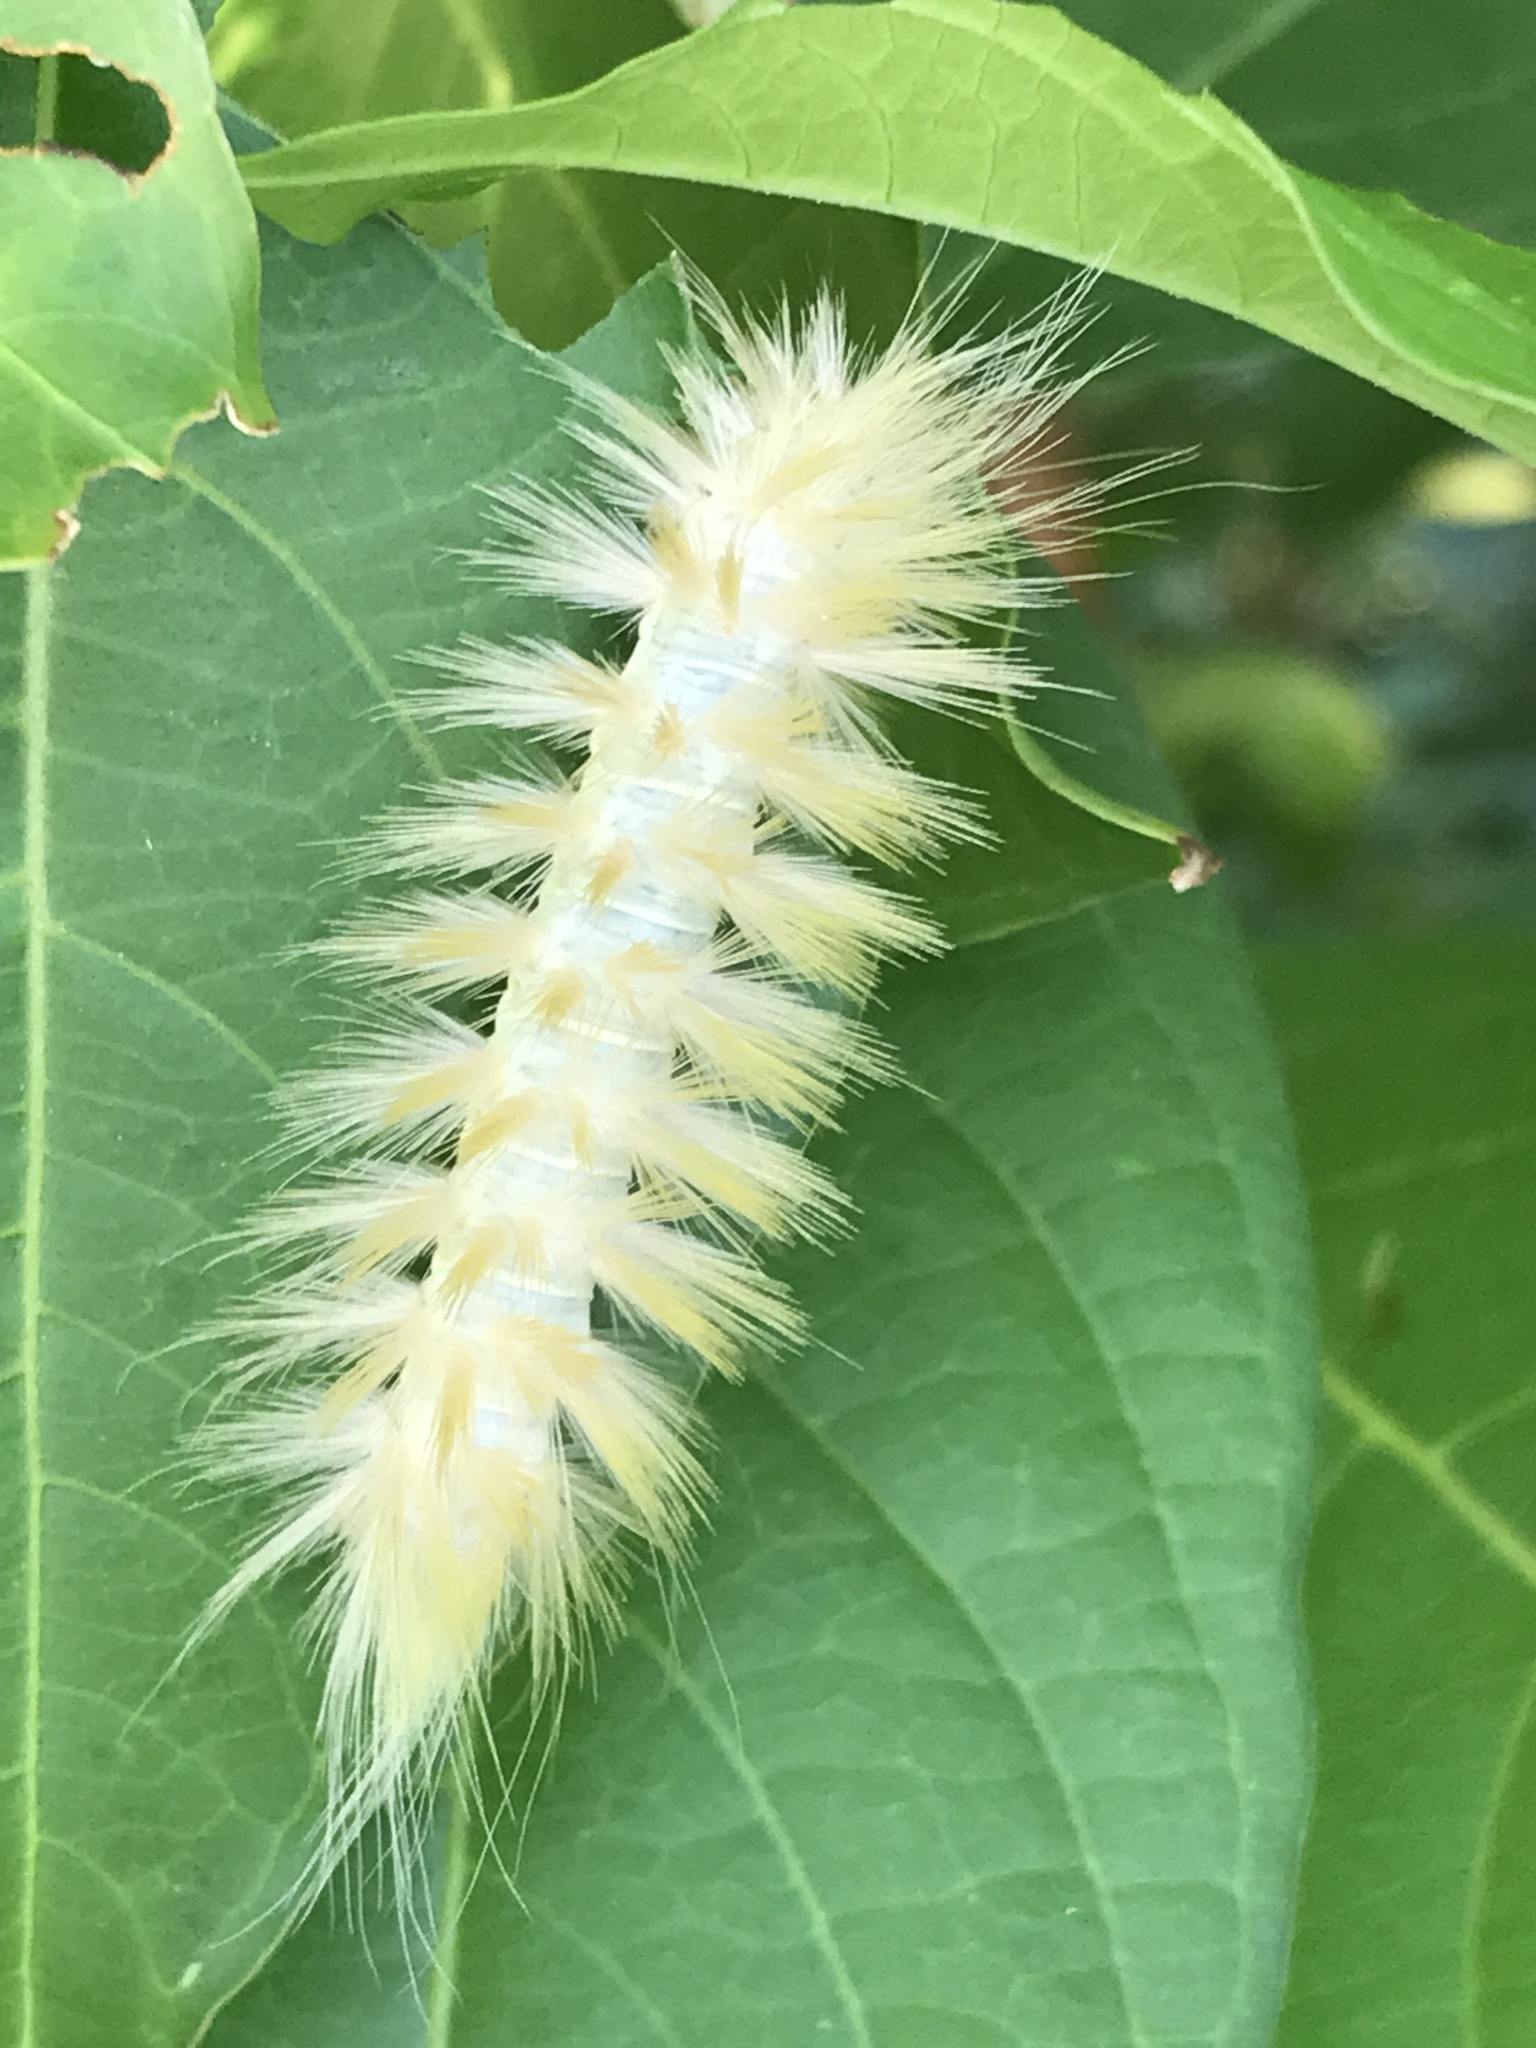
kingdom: Animalia
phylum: Arthropoda
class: Insecta
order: Lepidoptera
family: Erebidae
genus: Spilosoma
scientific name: Spilosoma virginica
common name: Virginia tiger moth
